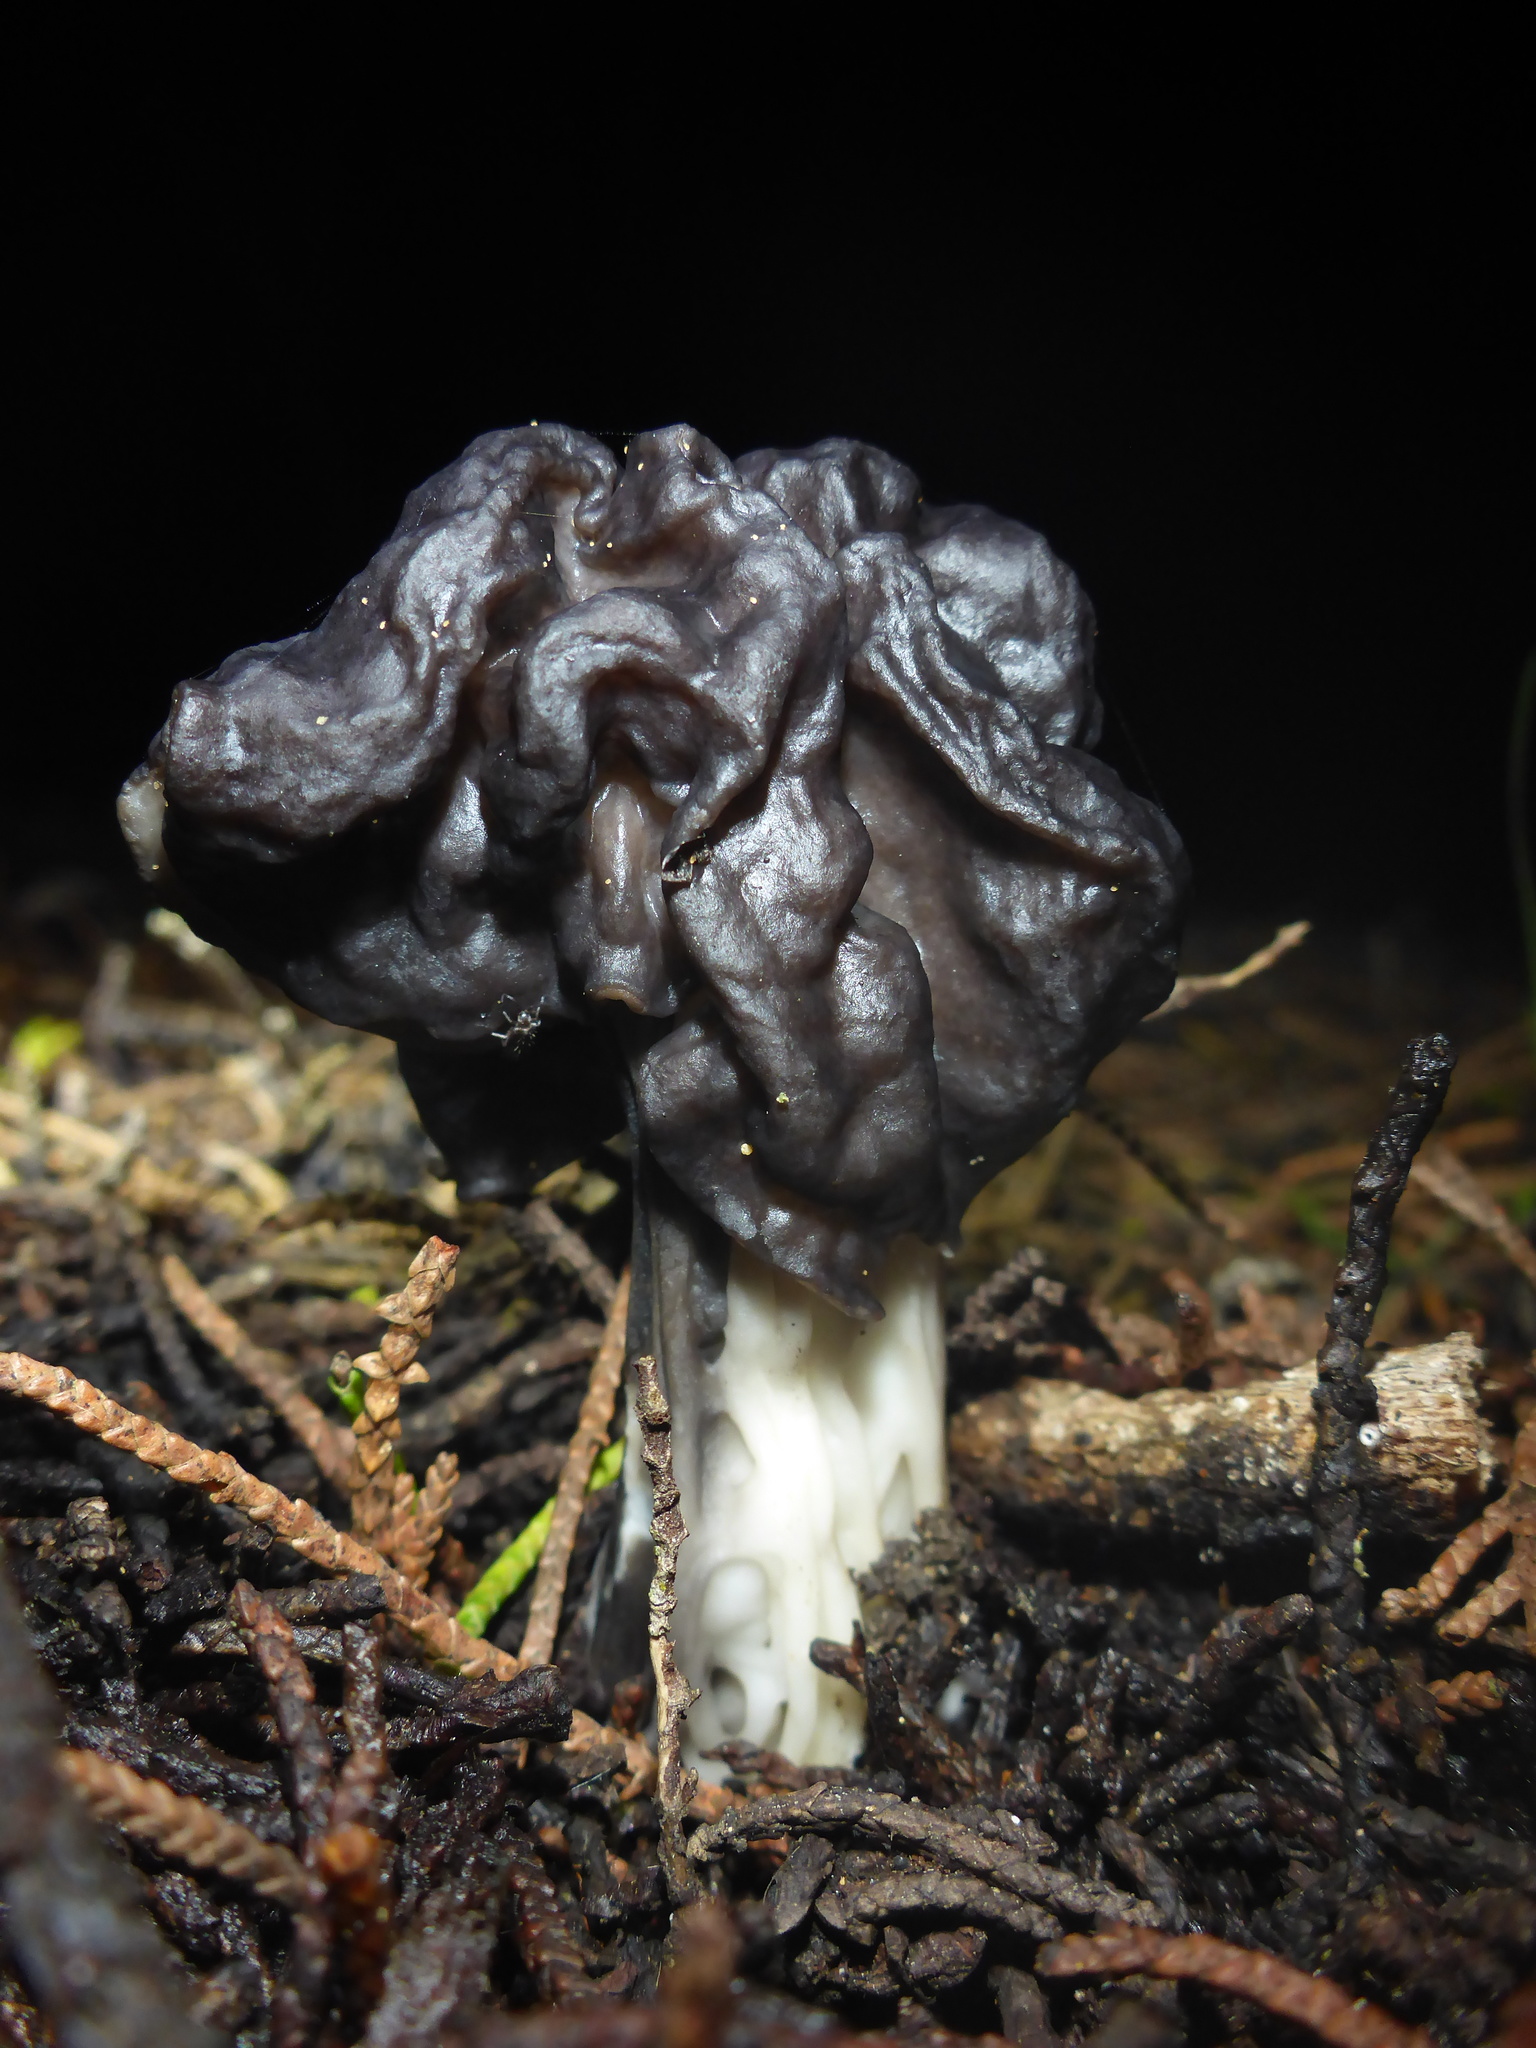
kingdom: Fungi
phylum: Ascomycota
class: Pezizomycetes
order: Pezizales
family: Helvellaceae
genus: Helvella
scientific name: Helvella vespertina
